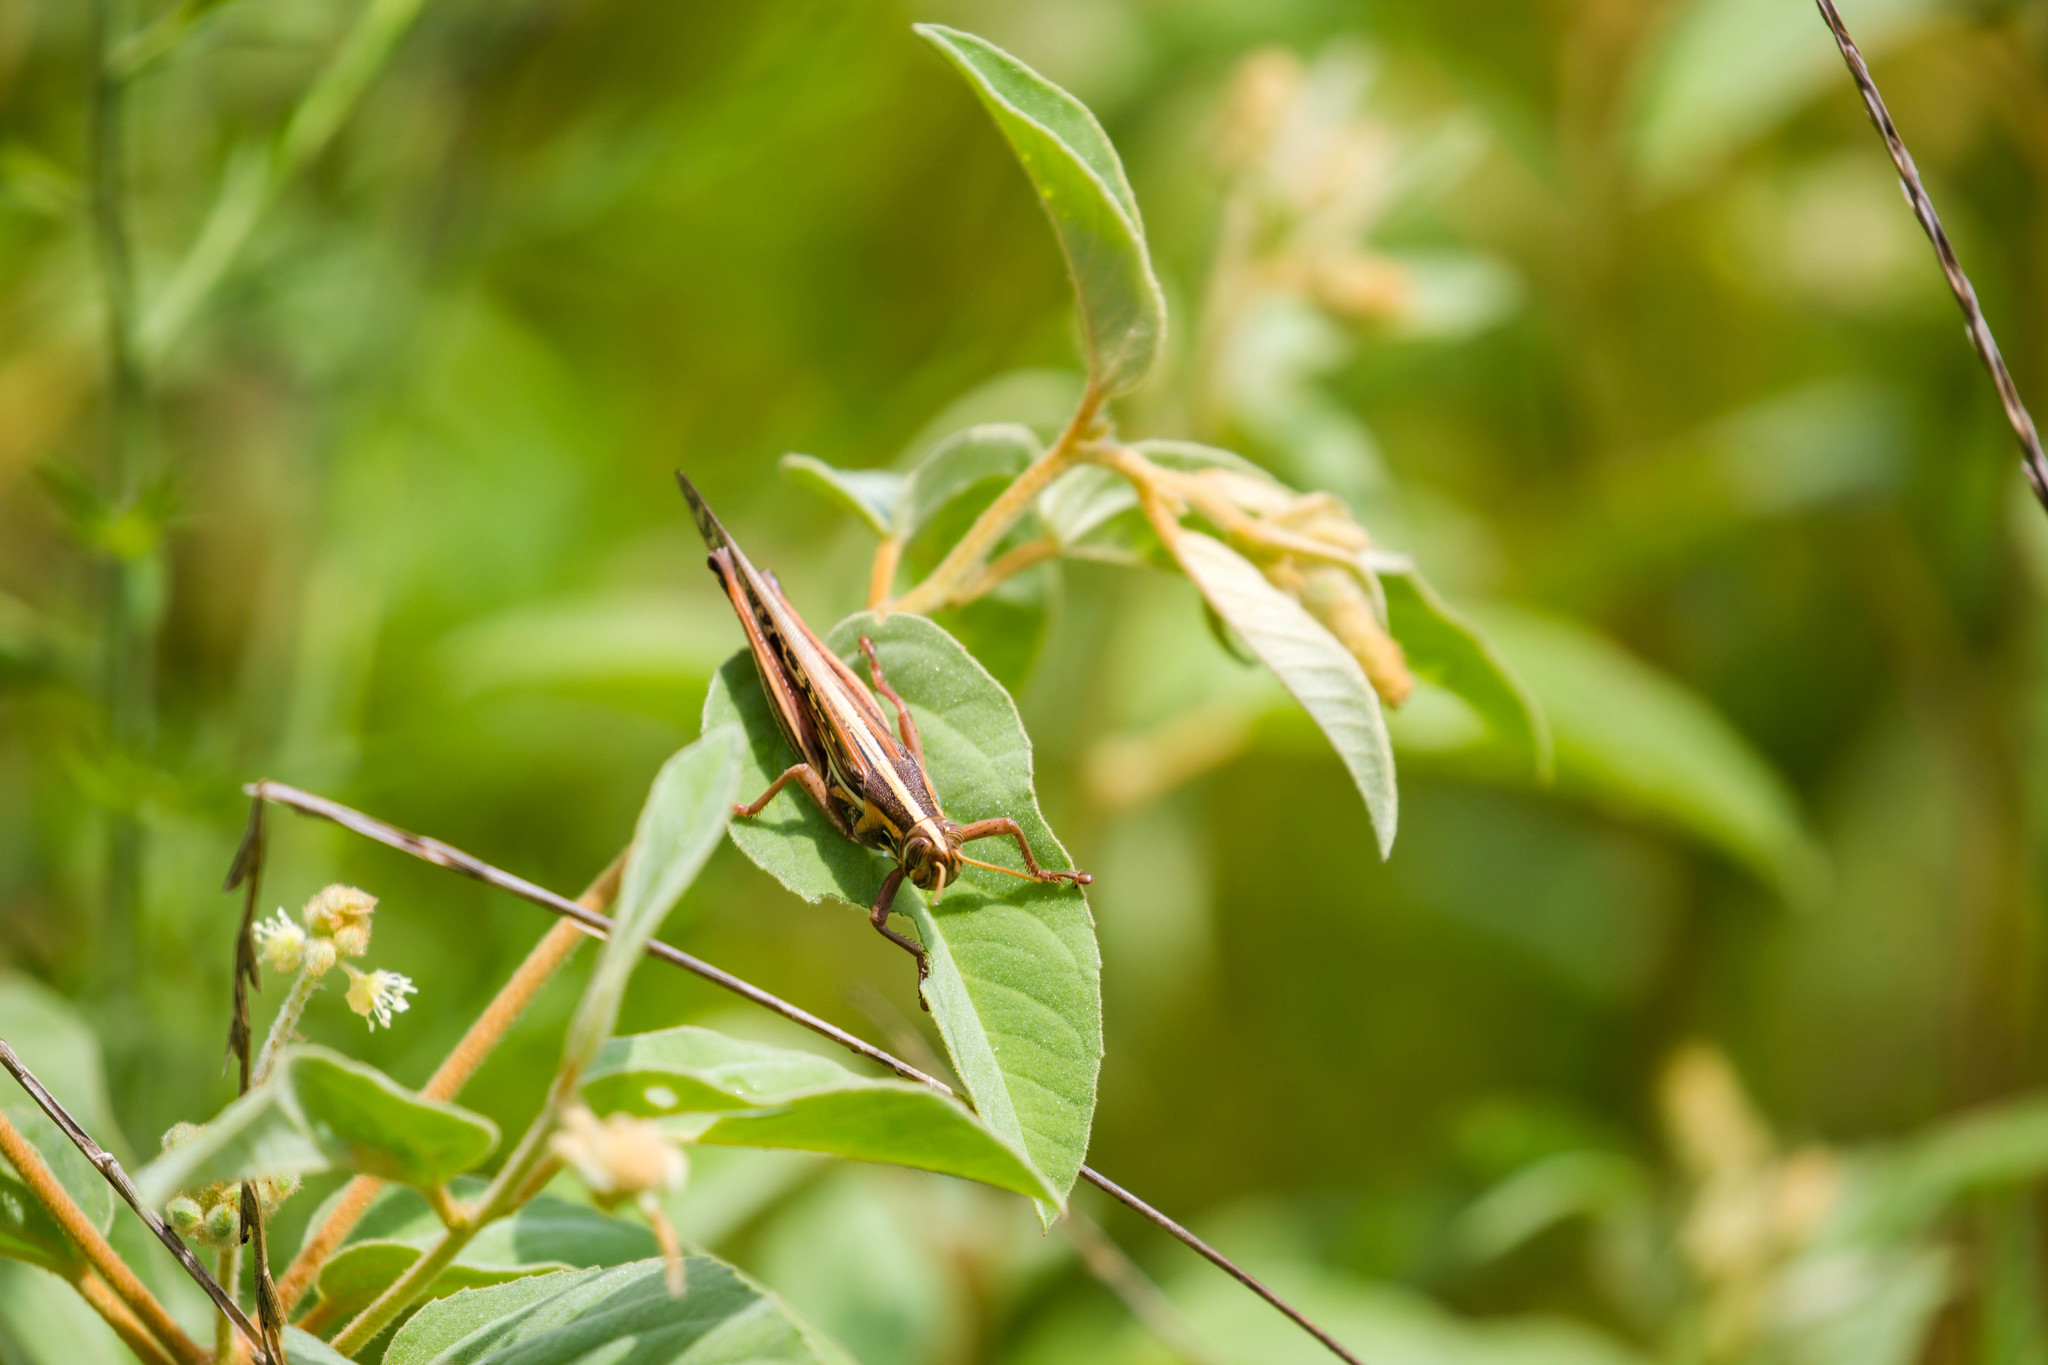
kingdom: Animalia
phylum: Arthropoda
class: Insecta
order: Orthoptera
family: Acrididae
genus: Schistocerca
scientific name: Schistocerca americana
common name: American bird locust
